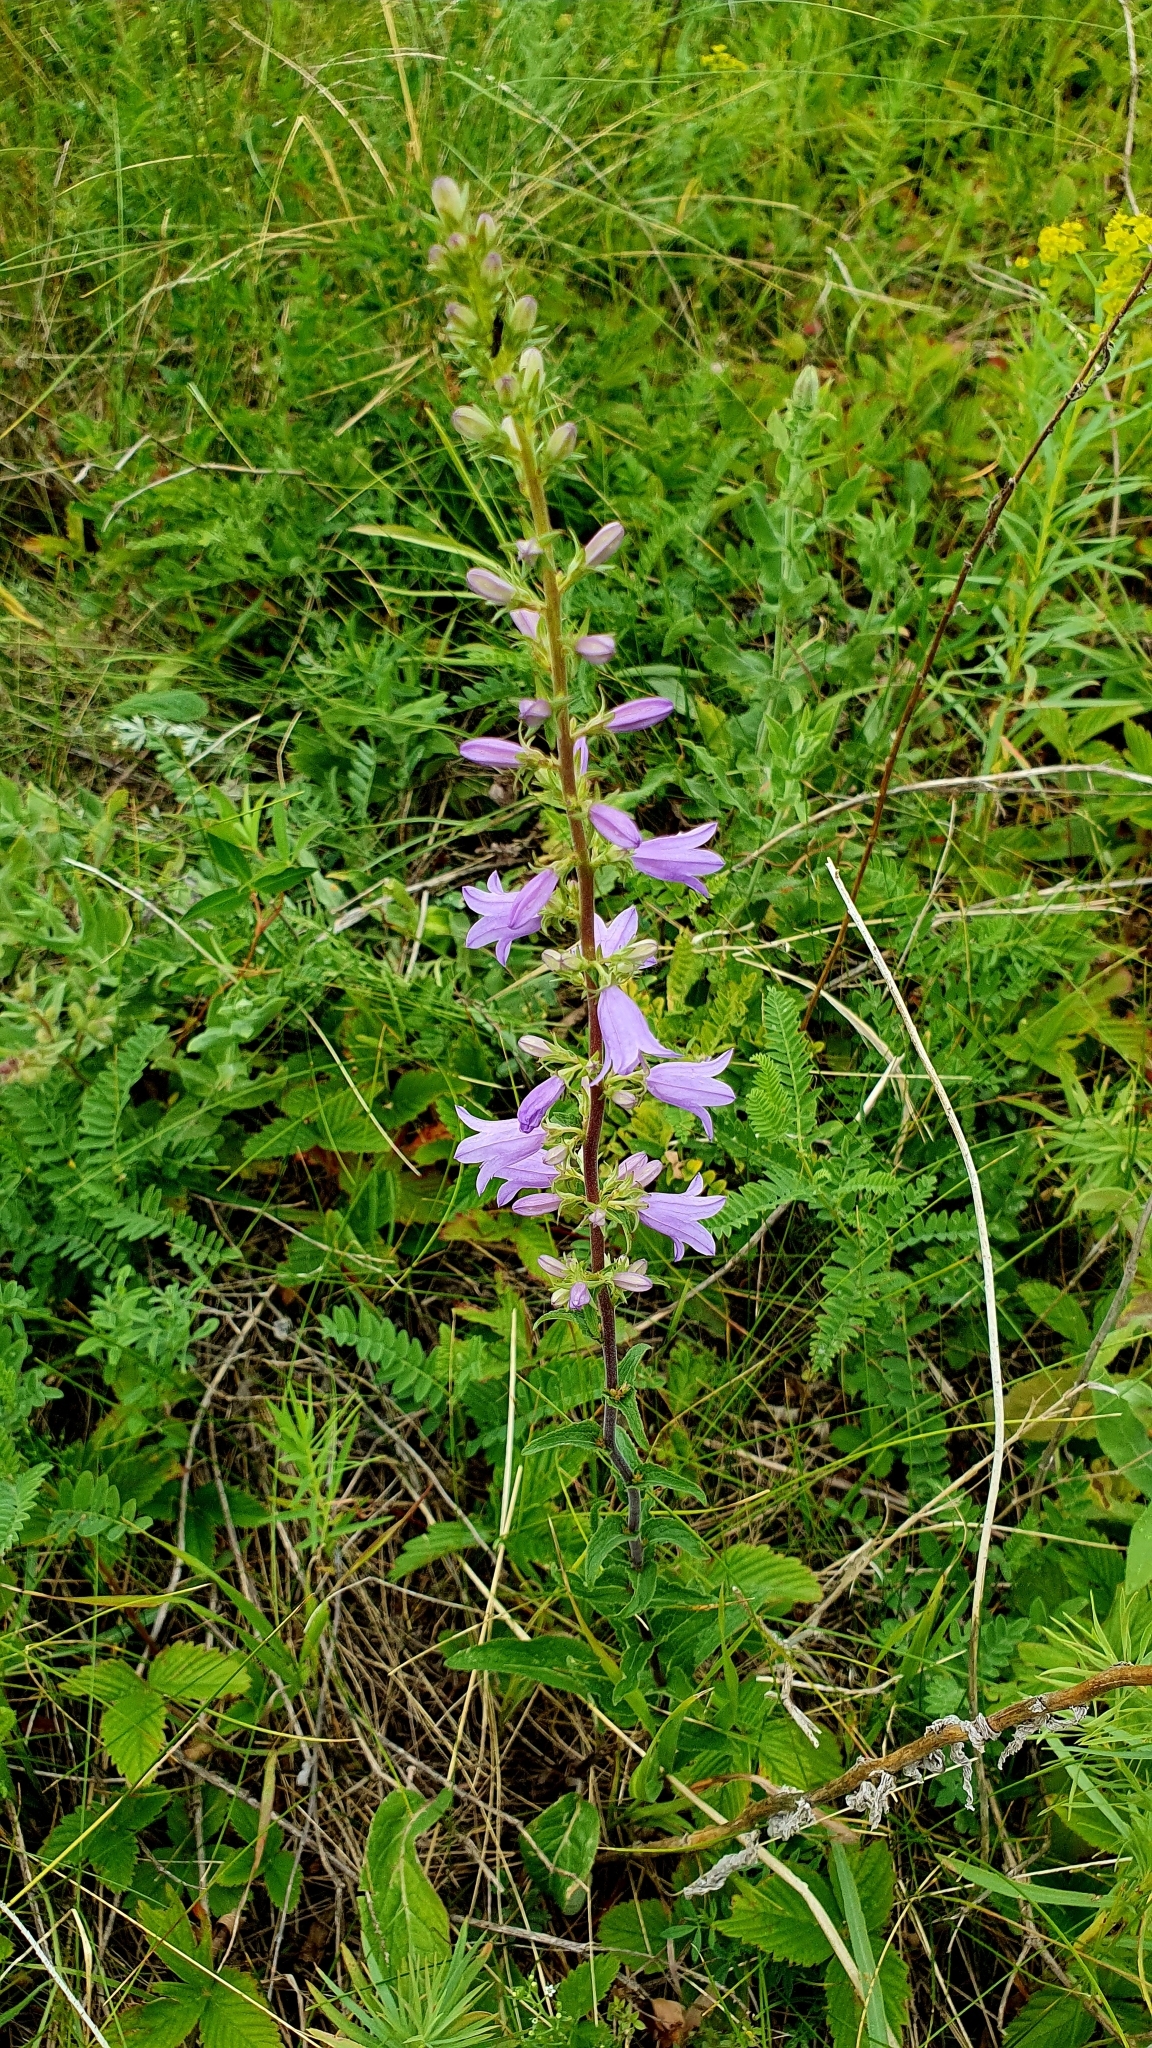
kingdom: Plantae
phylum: Tracheophyta
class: Magnoliopsida
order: Asterales
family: Campanulaceae
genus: Campanula
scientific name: Campanula bononiensis
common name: Pale bellflower
